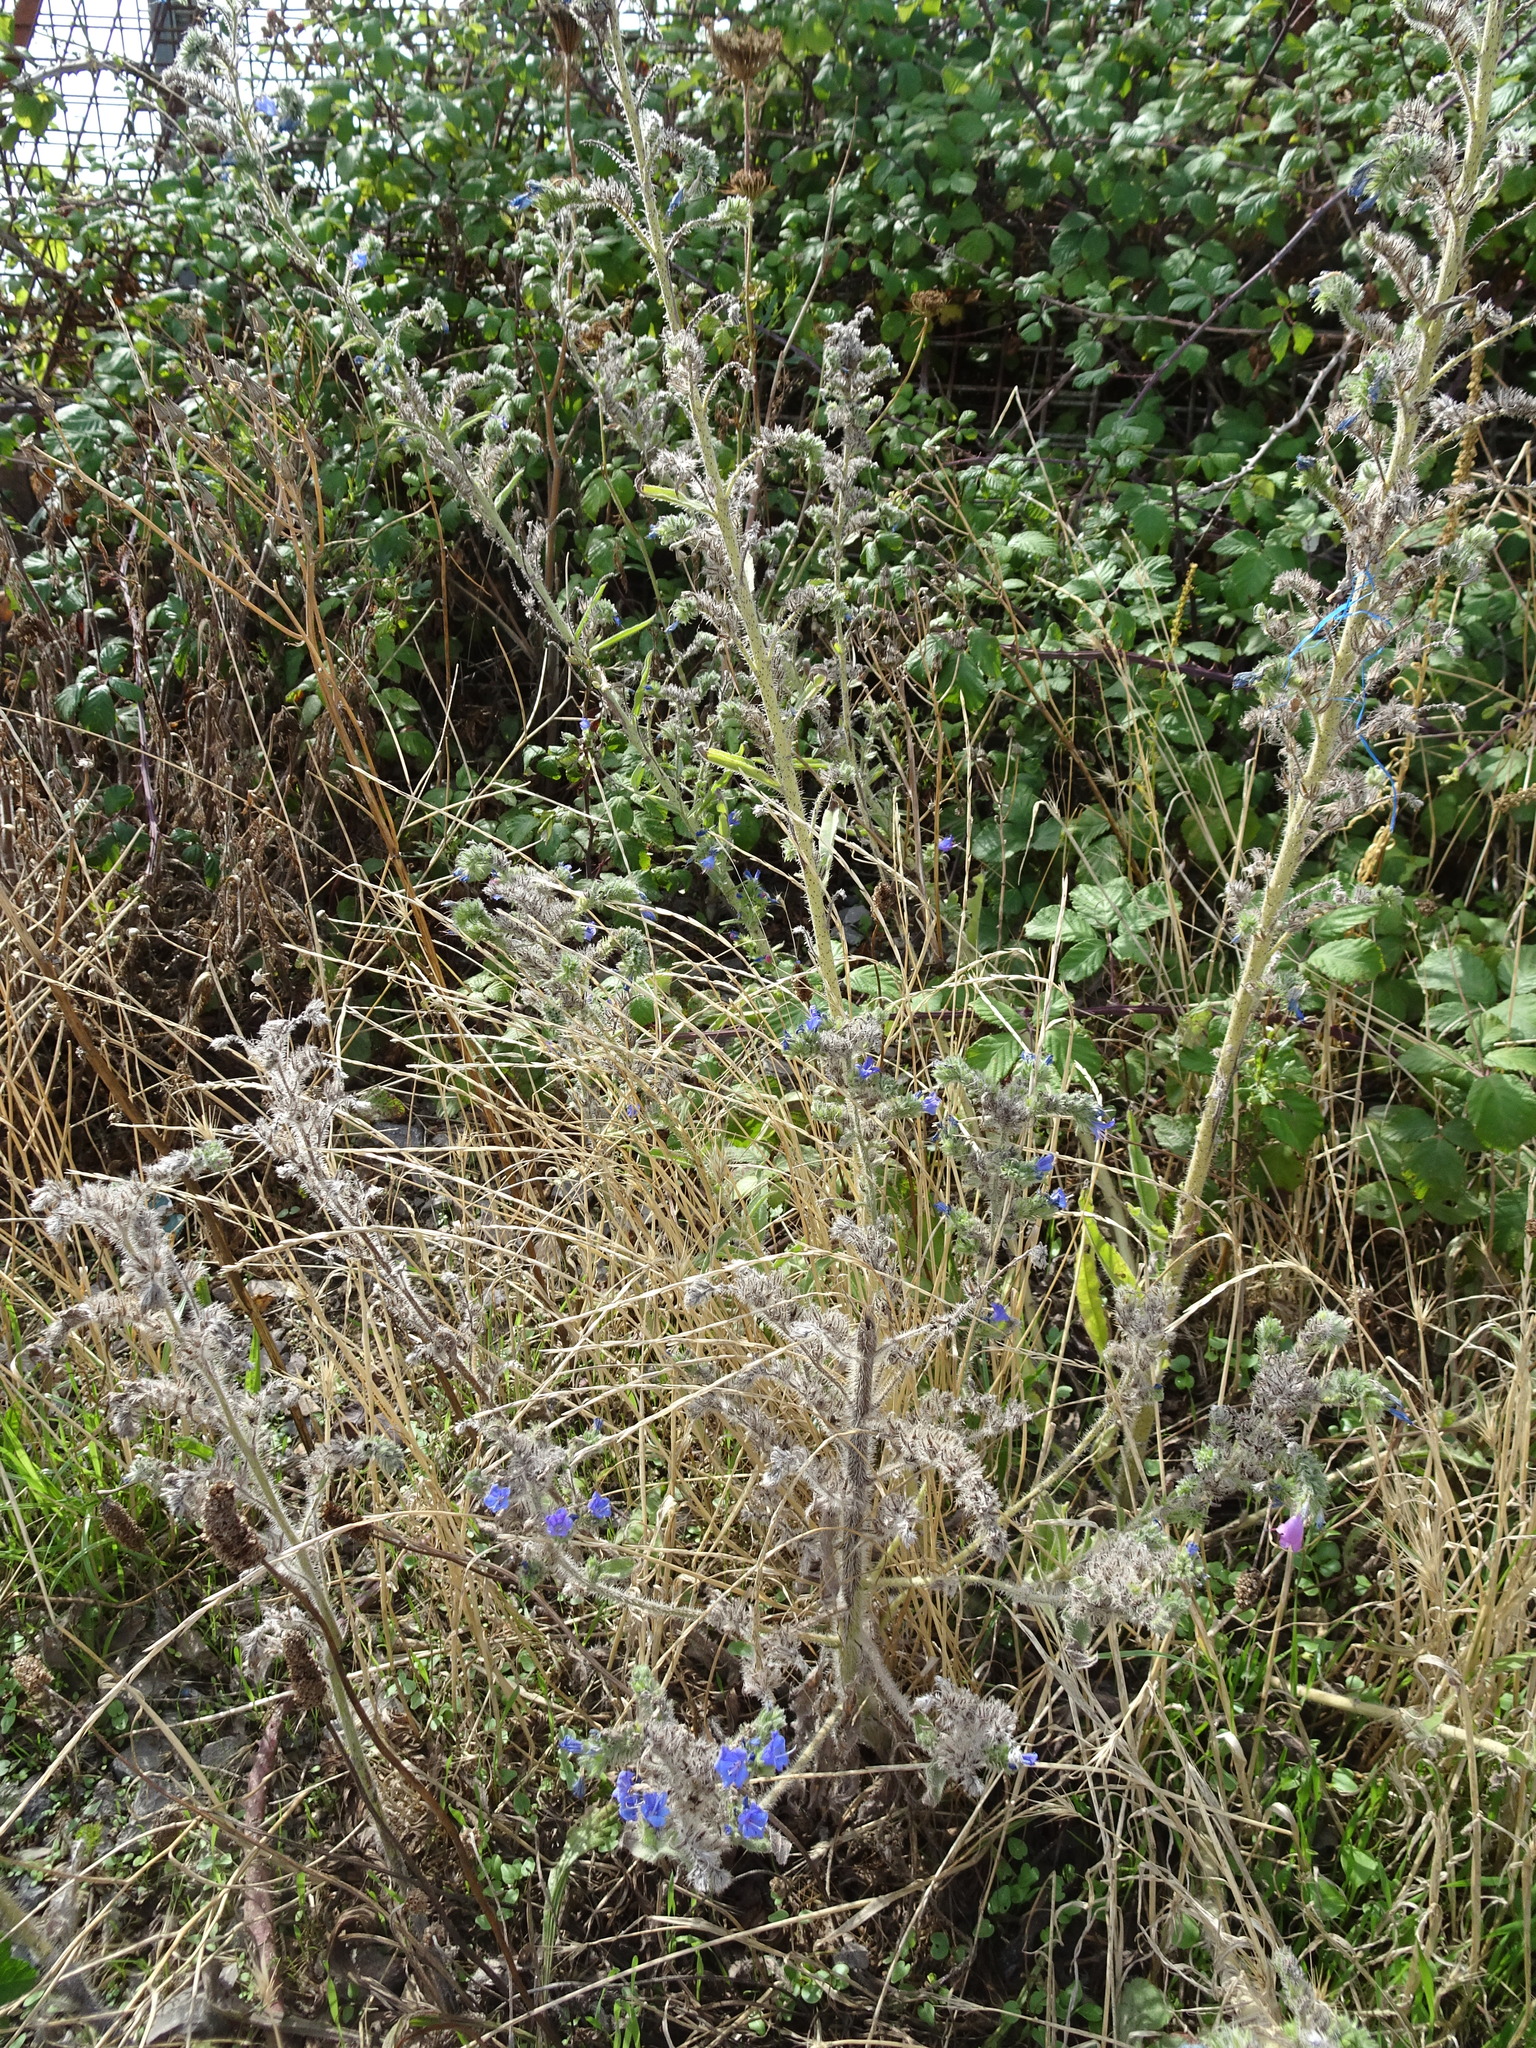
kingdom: Plantae
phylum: Tracheophyta
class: Magnoliopsida
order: Boraginales
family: Boraginaceae
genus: Echium
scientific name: Echium vulgare
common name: Common viper's bugloss
